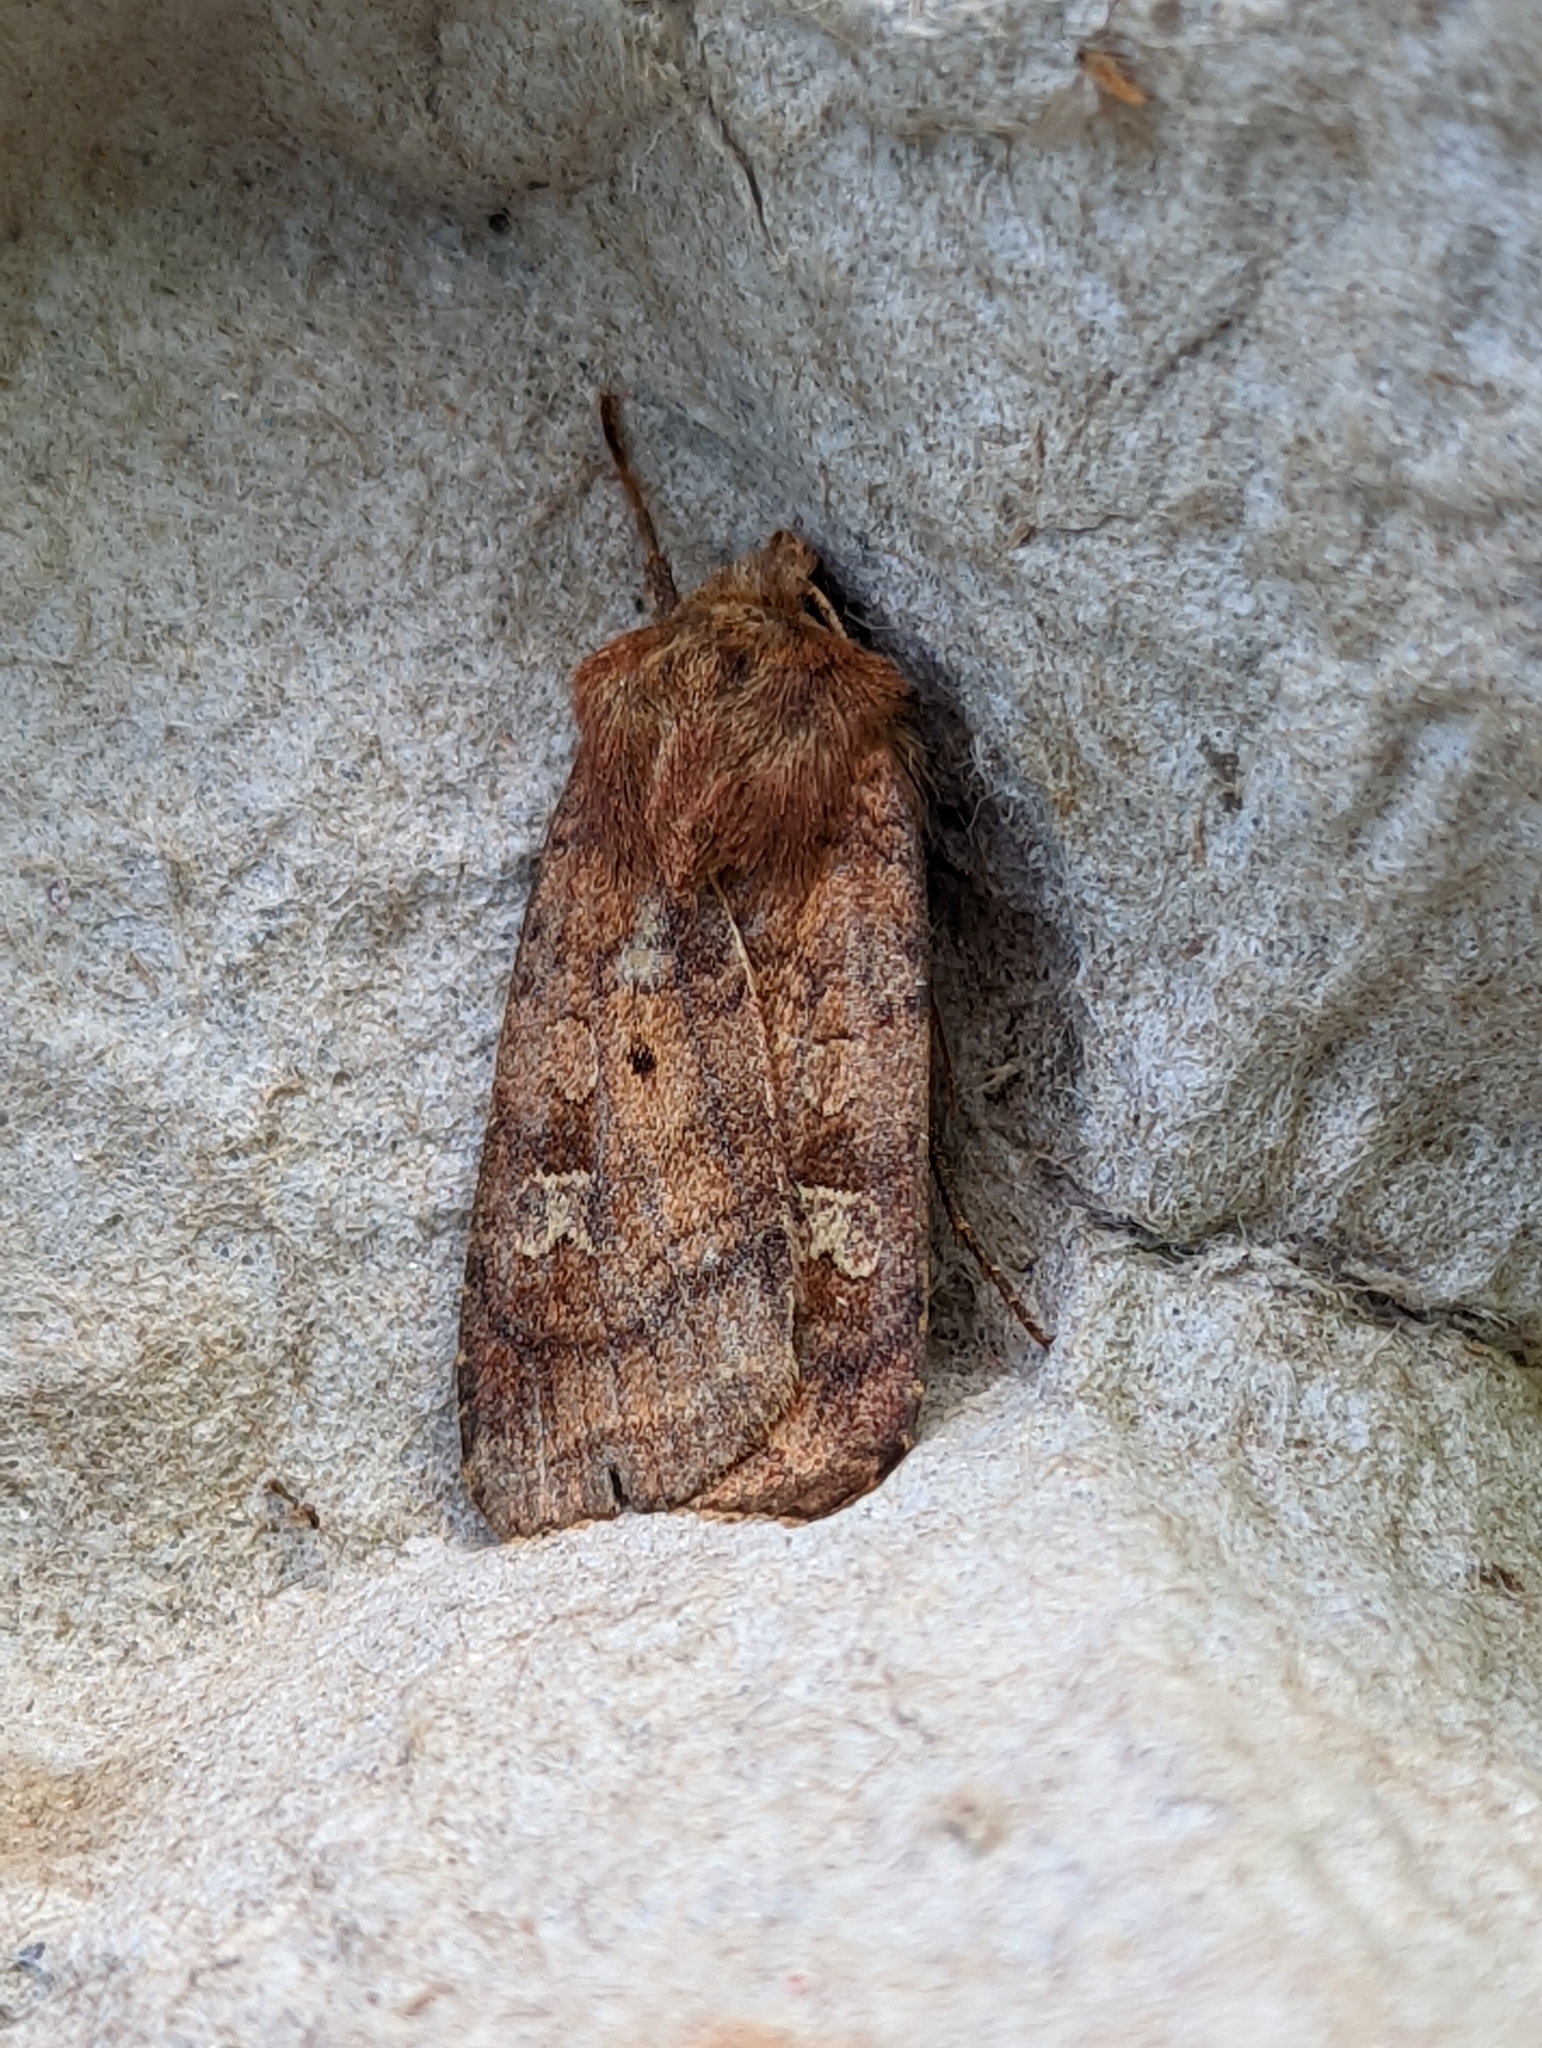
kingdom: Animalia
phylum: Arthropoda
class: Insecta
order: Lepidoptera
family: Noctuidae
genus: Diarsia
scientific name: Diarsia rubi
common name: Small square-spot
